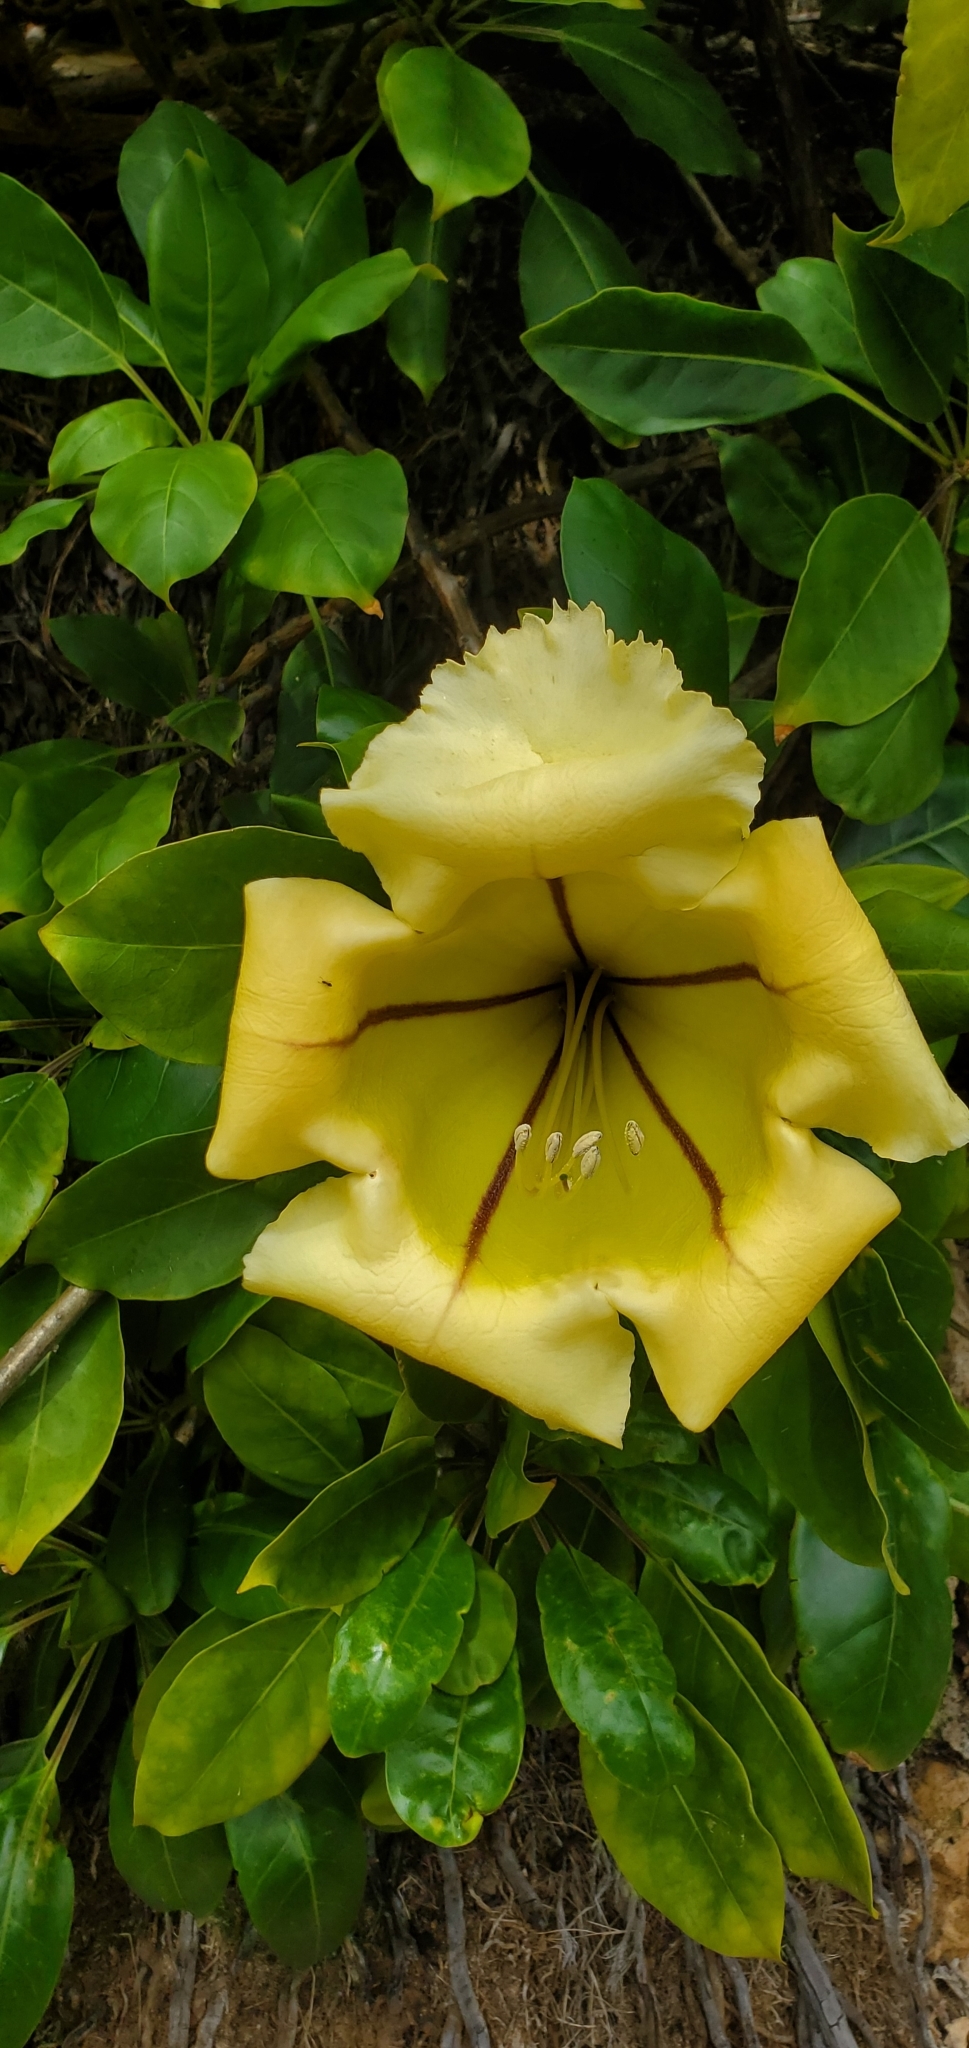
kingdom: Plantae
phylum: Tracheophyta
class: Magnoliopsida
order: Solanales
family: Solanaceae
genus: Solandra
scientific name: Solandra maxima
